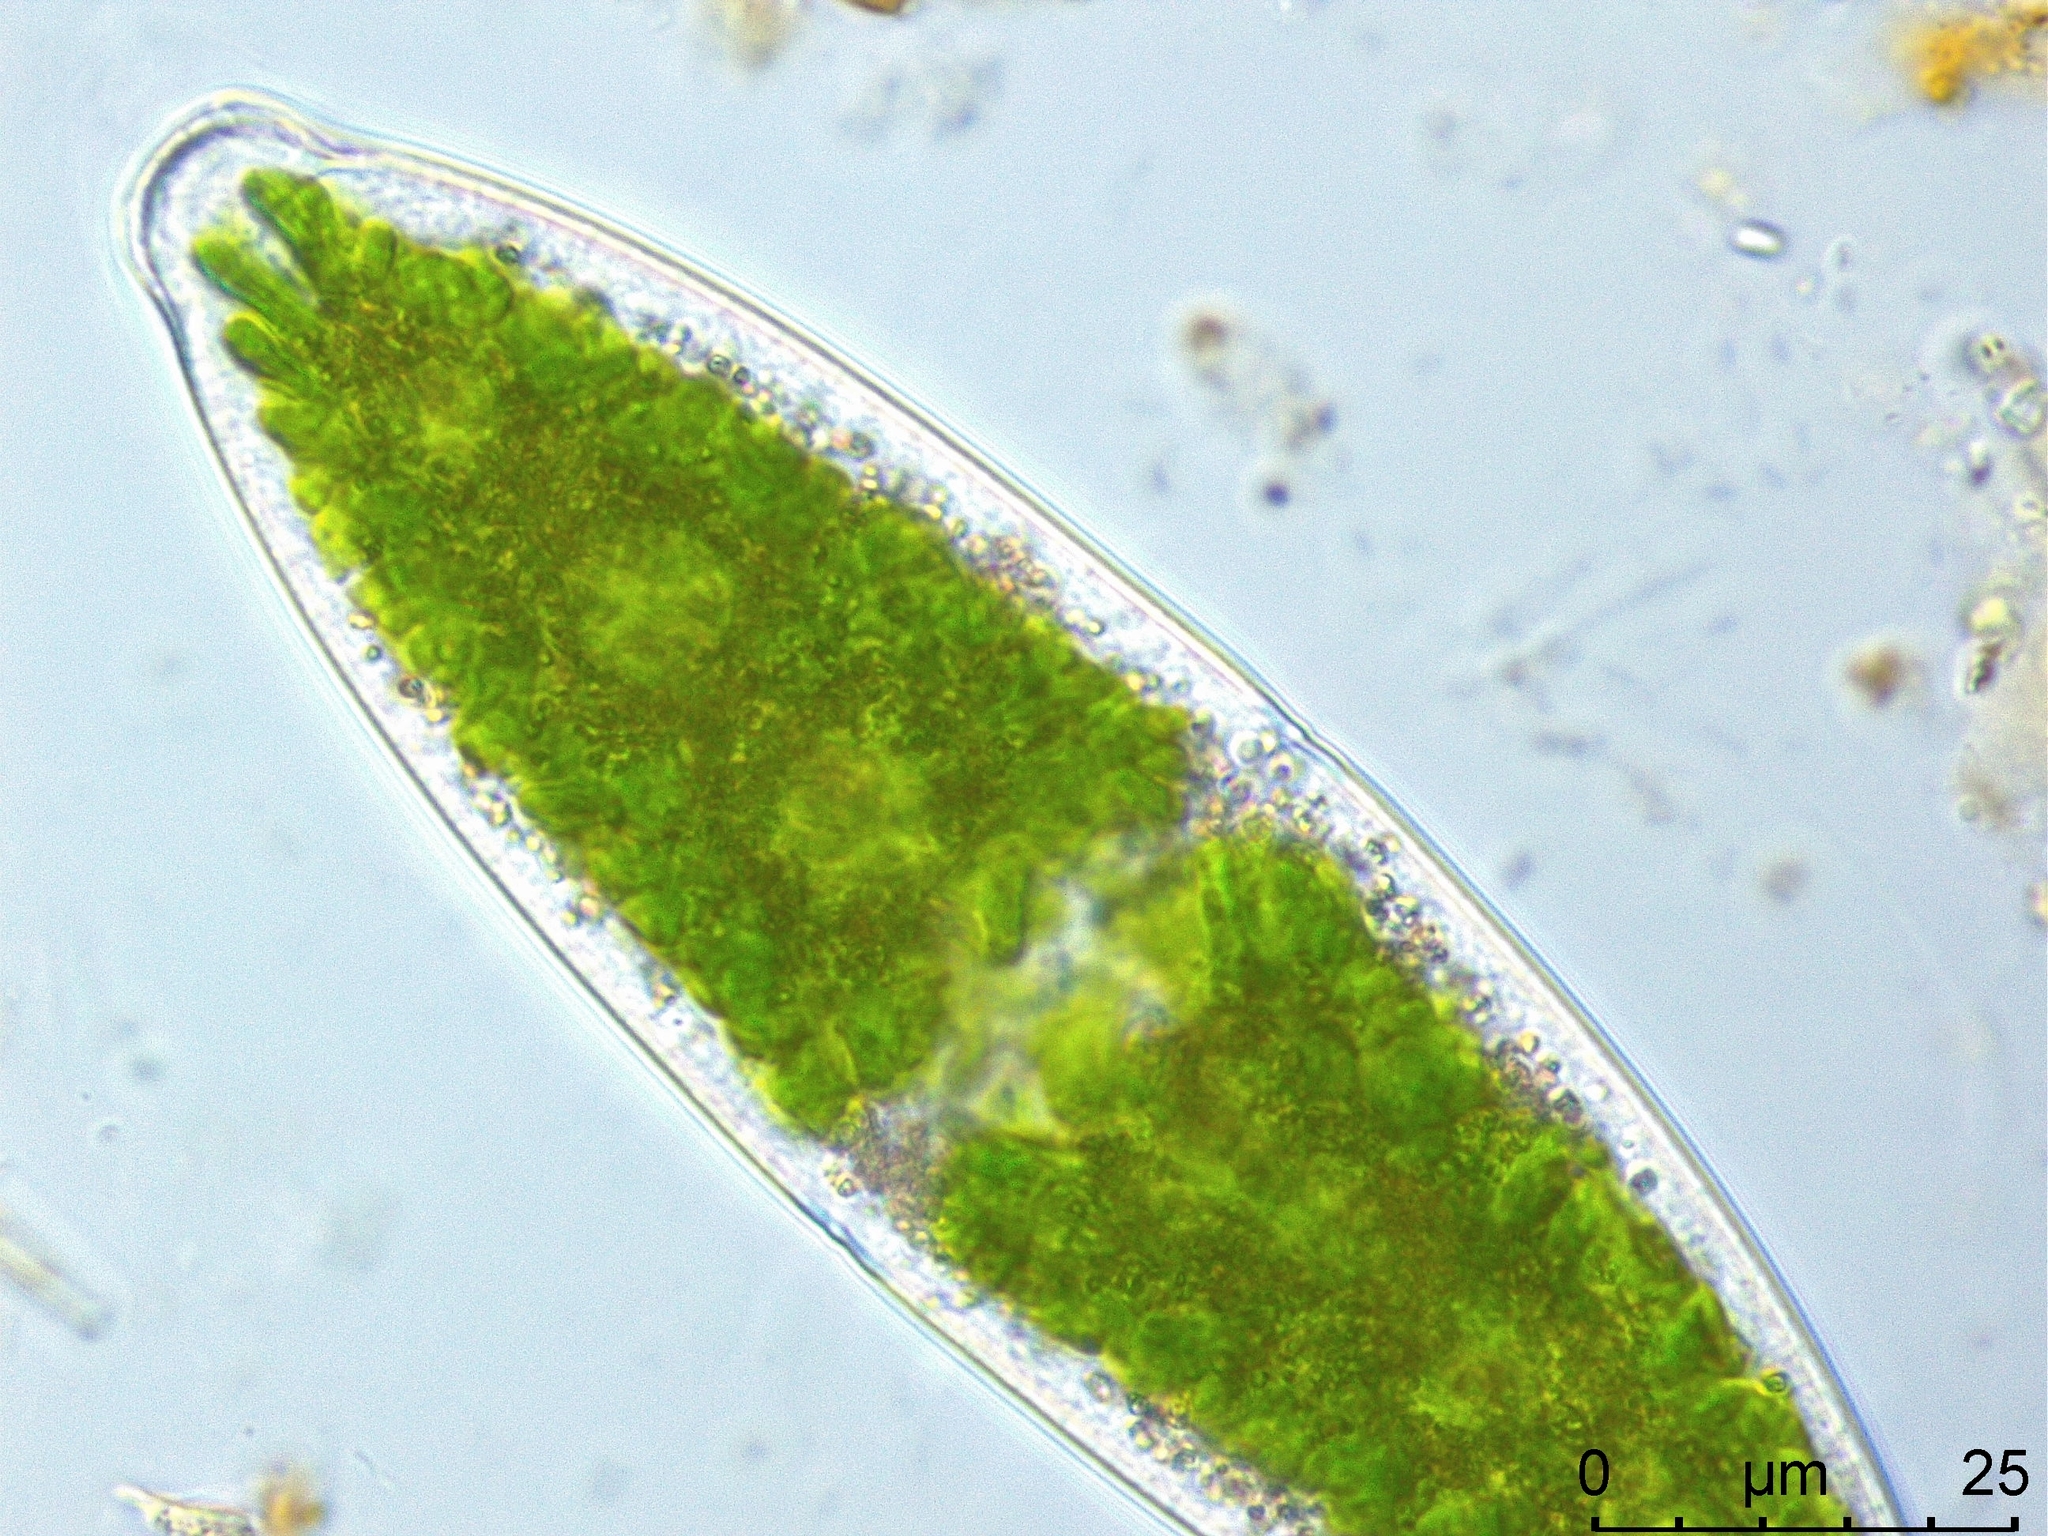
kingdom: Plantae
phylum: Charophyta
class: Zygnematophyceae
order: Zygnematales
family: Mesotaeniaceae
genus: Netrium
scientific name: Netrium digitus
